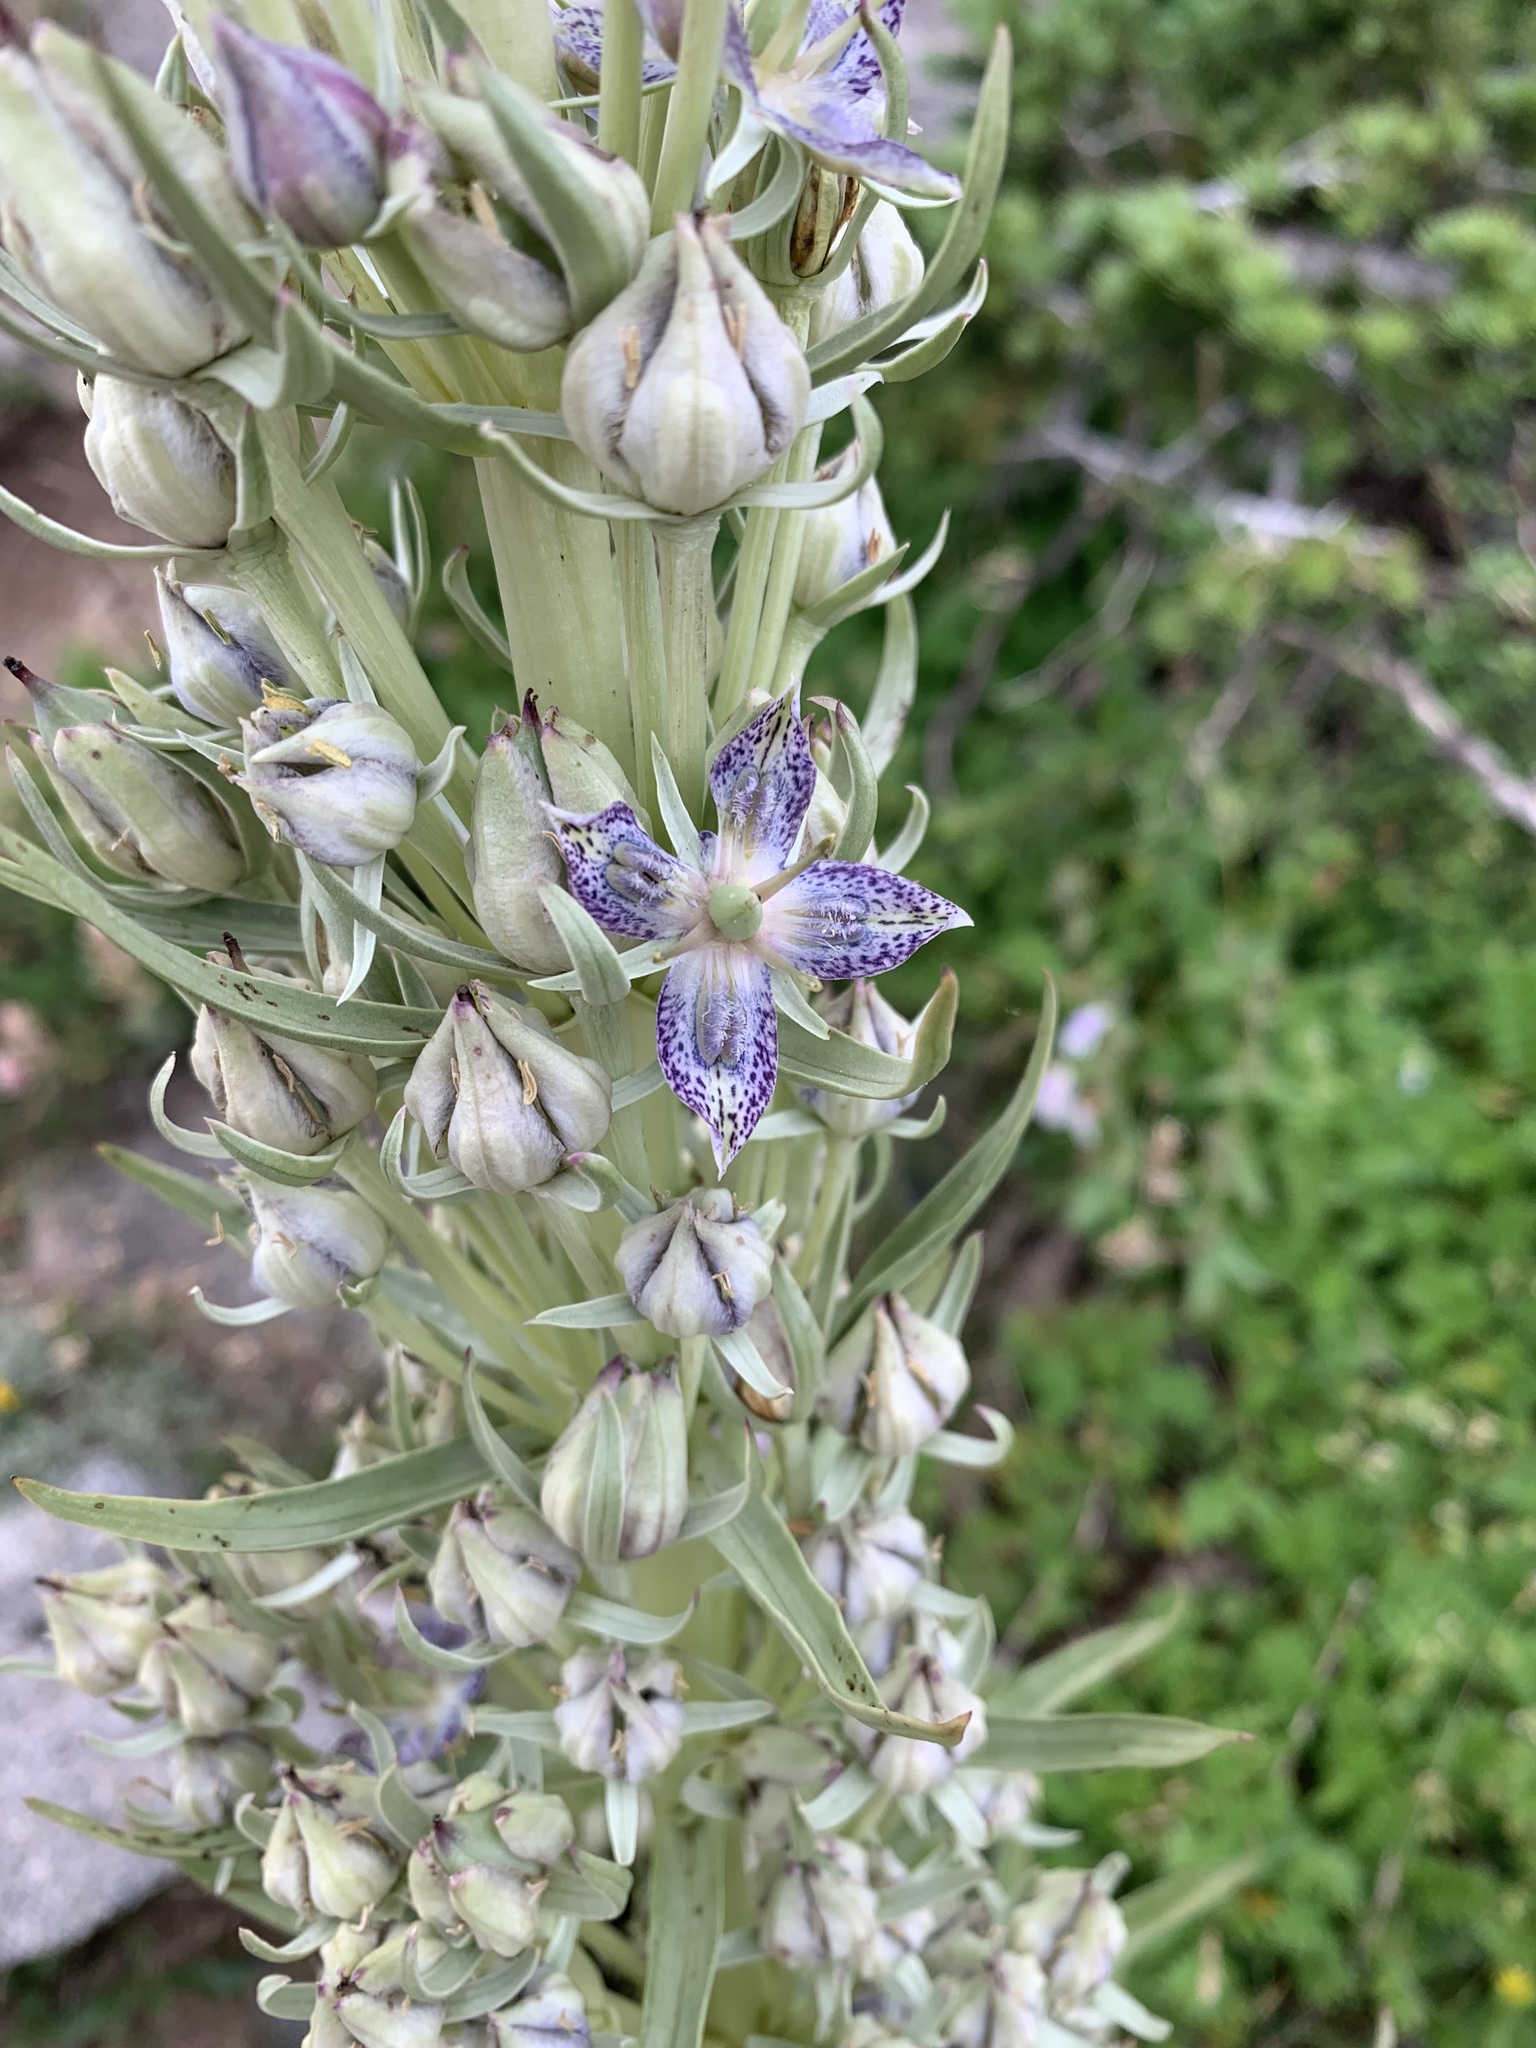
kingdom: Plantae
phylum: Tracheophyta
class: Magnoliopsida
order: Gentianales
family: Gentianaceae
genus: Frasera
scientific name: Frasera speciosa
